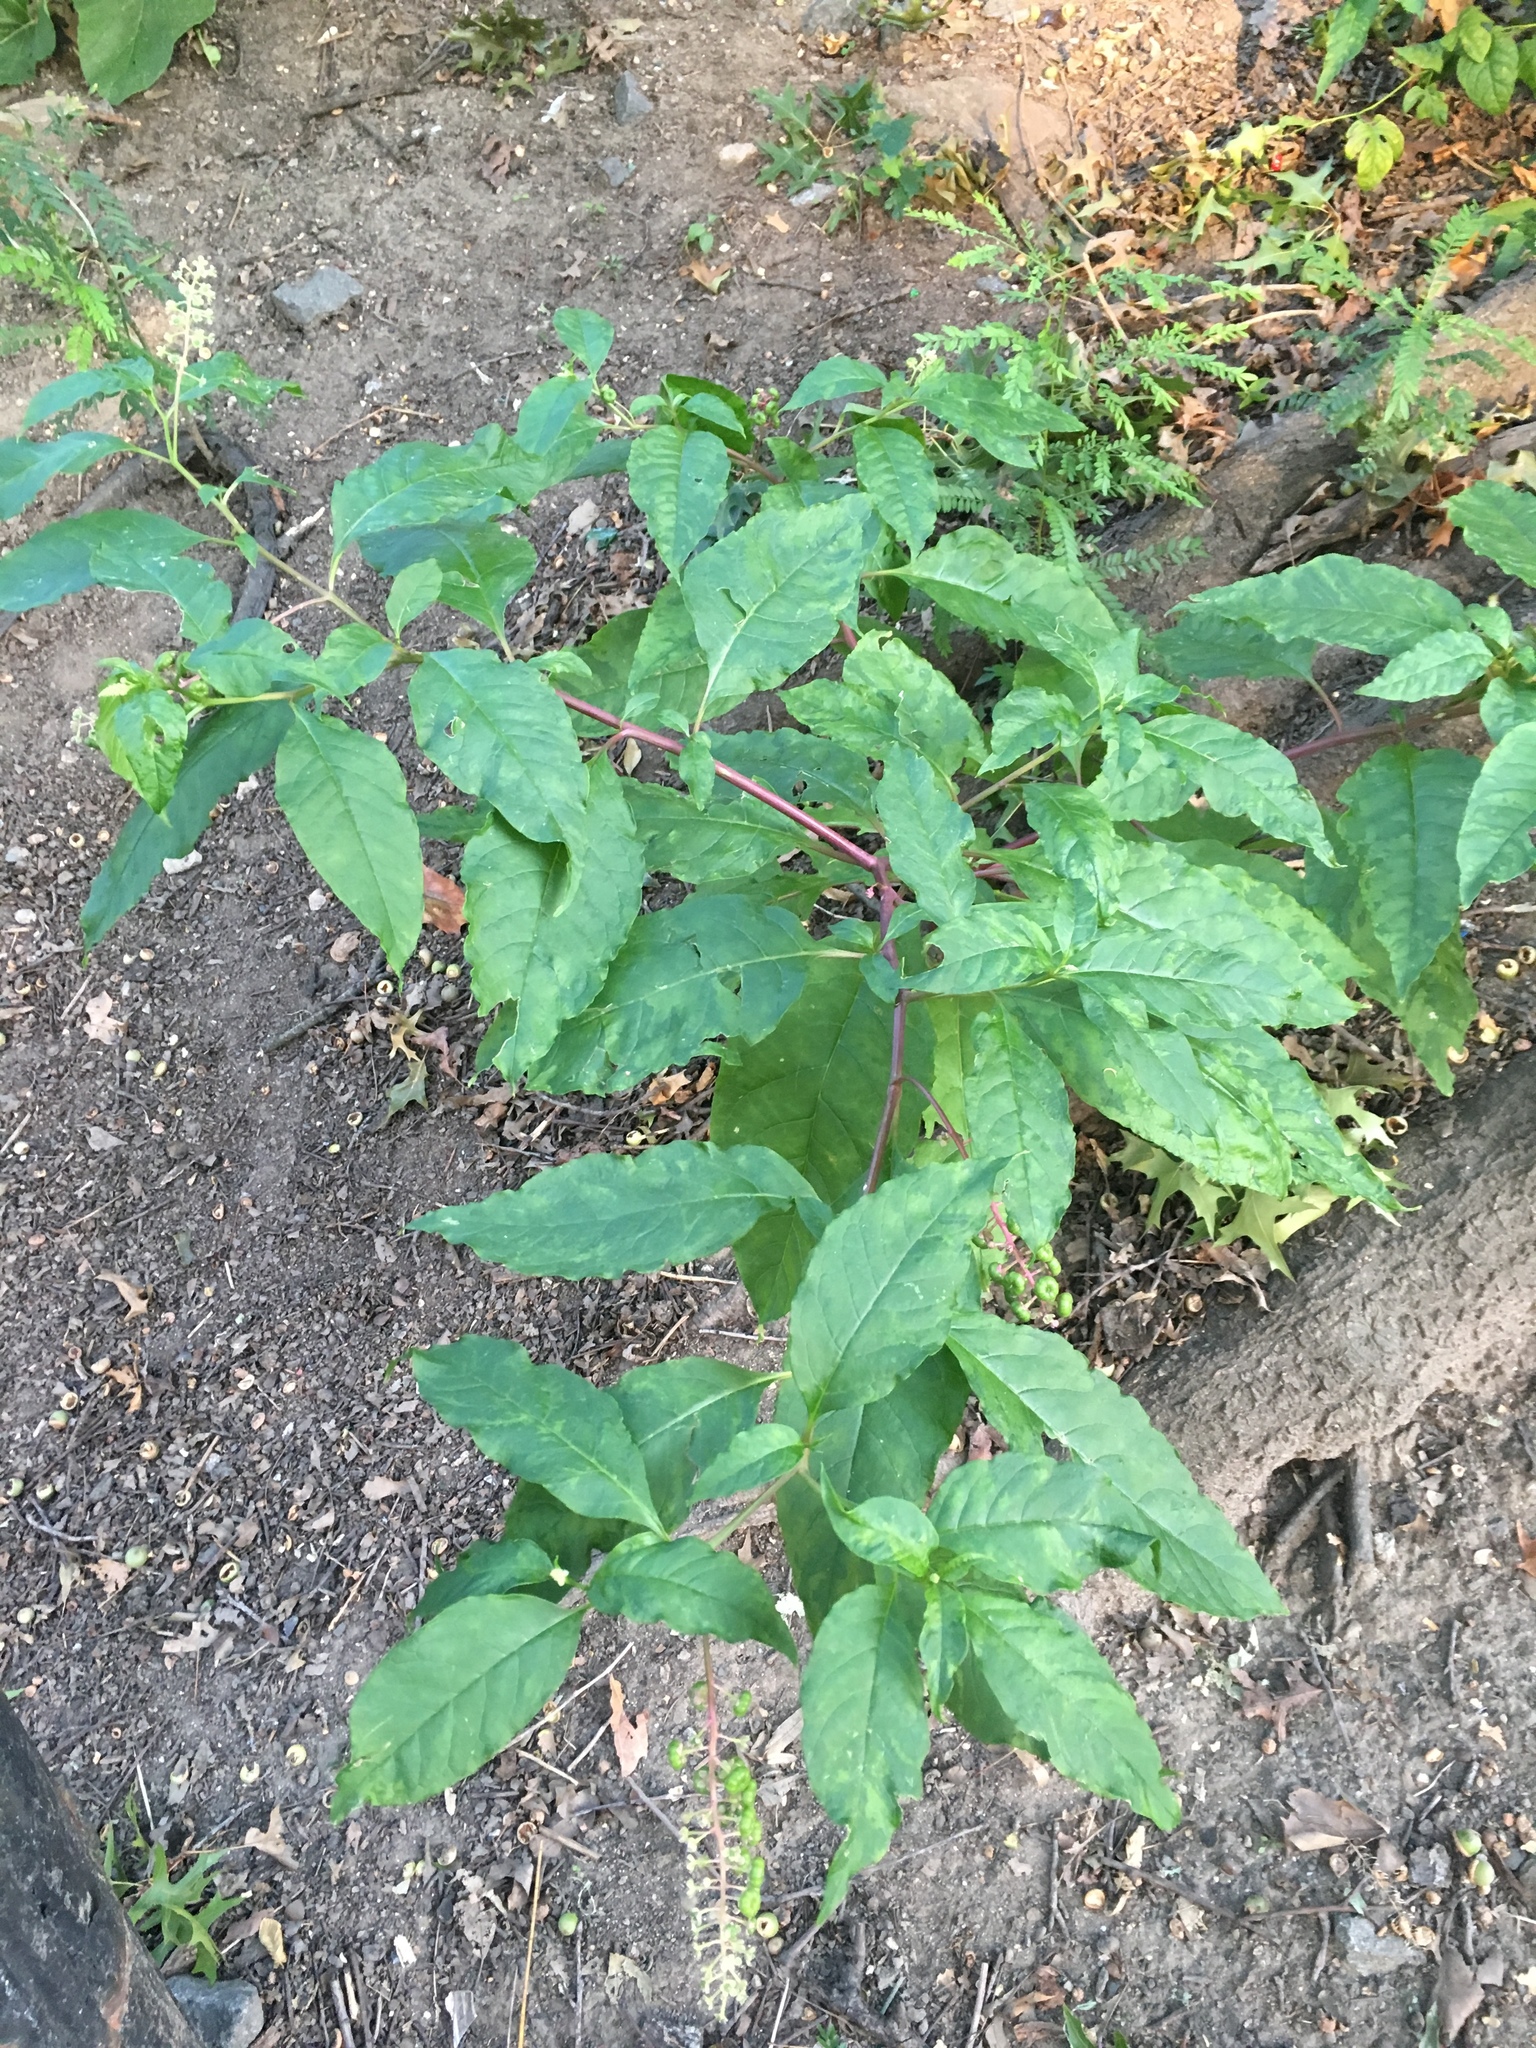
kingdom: Plantae
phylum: Tracheophyta
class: Magnoliopsida
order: Caryophyllales
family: Phytolaccaceae
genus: Phytolacca
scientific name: Phytolacca americana
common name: American pokeweed
